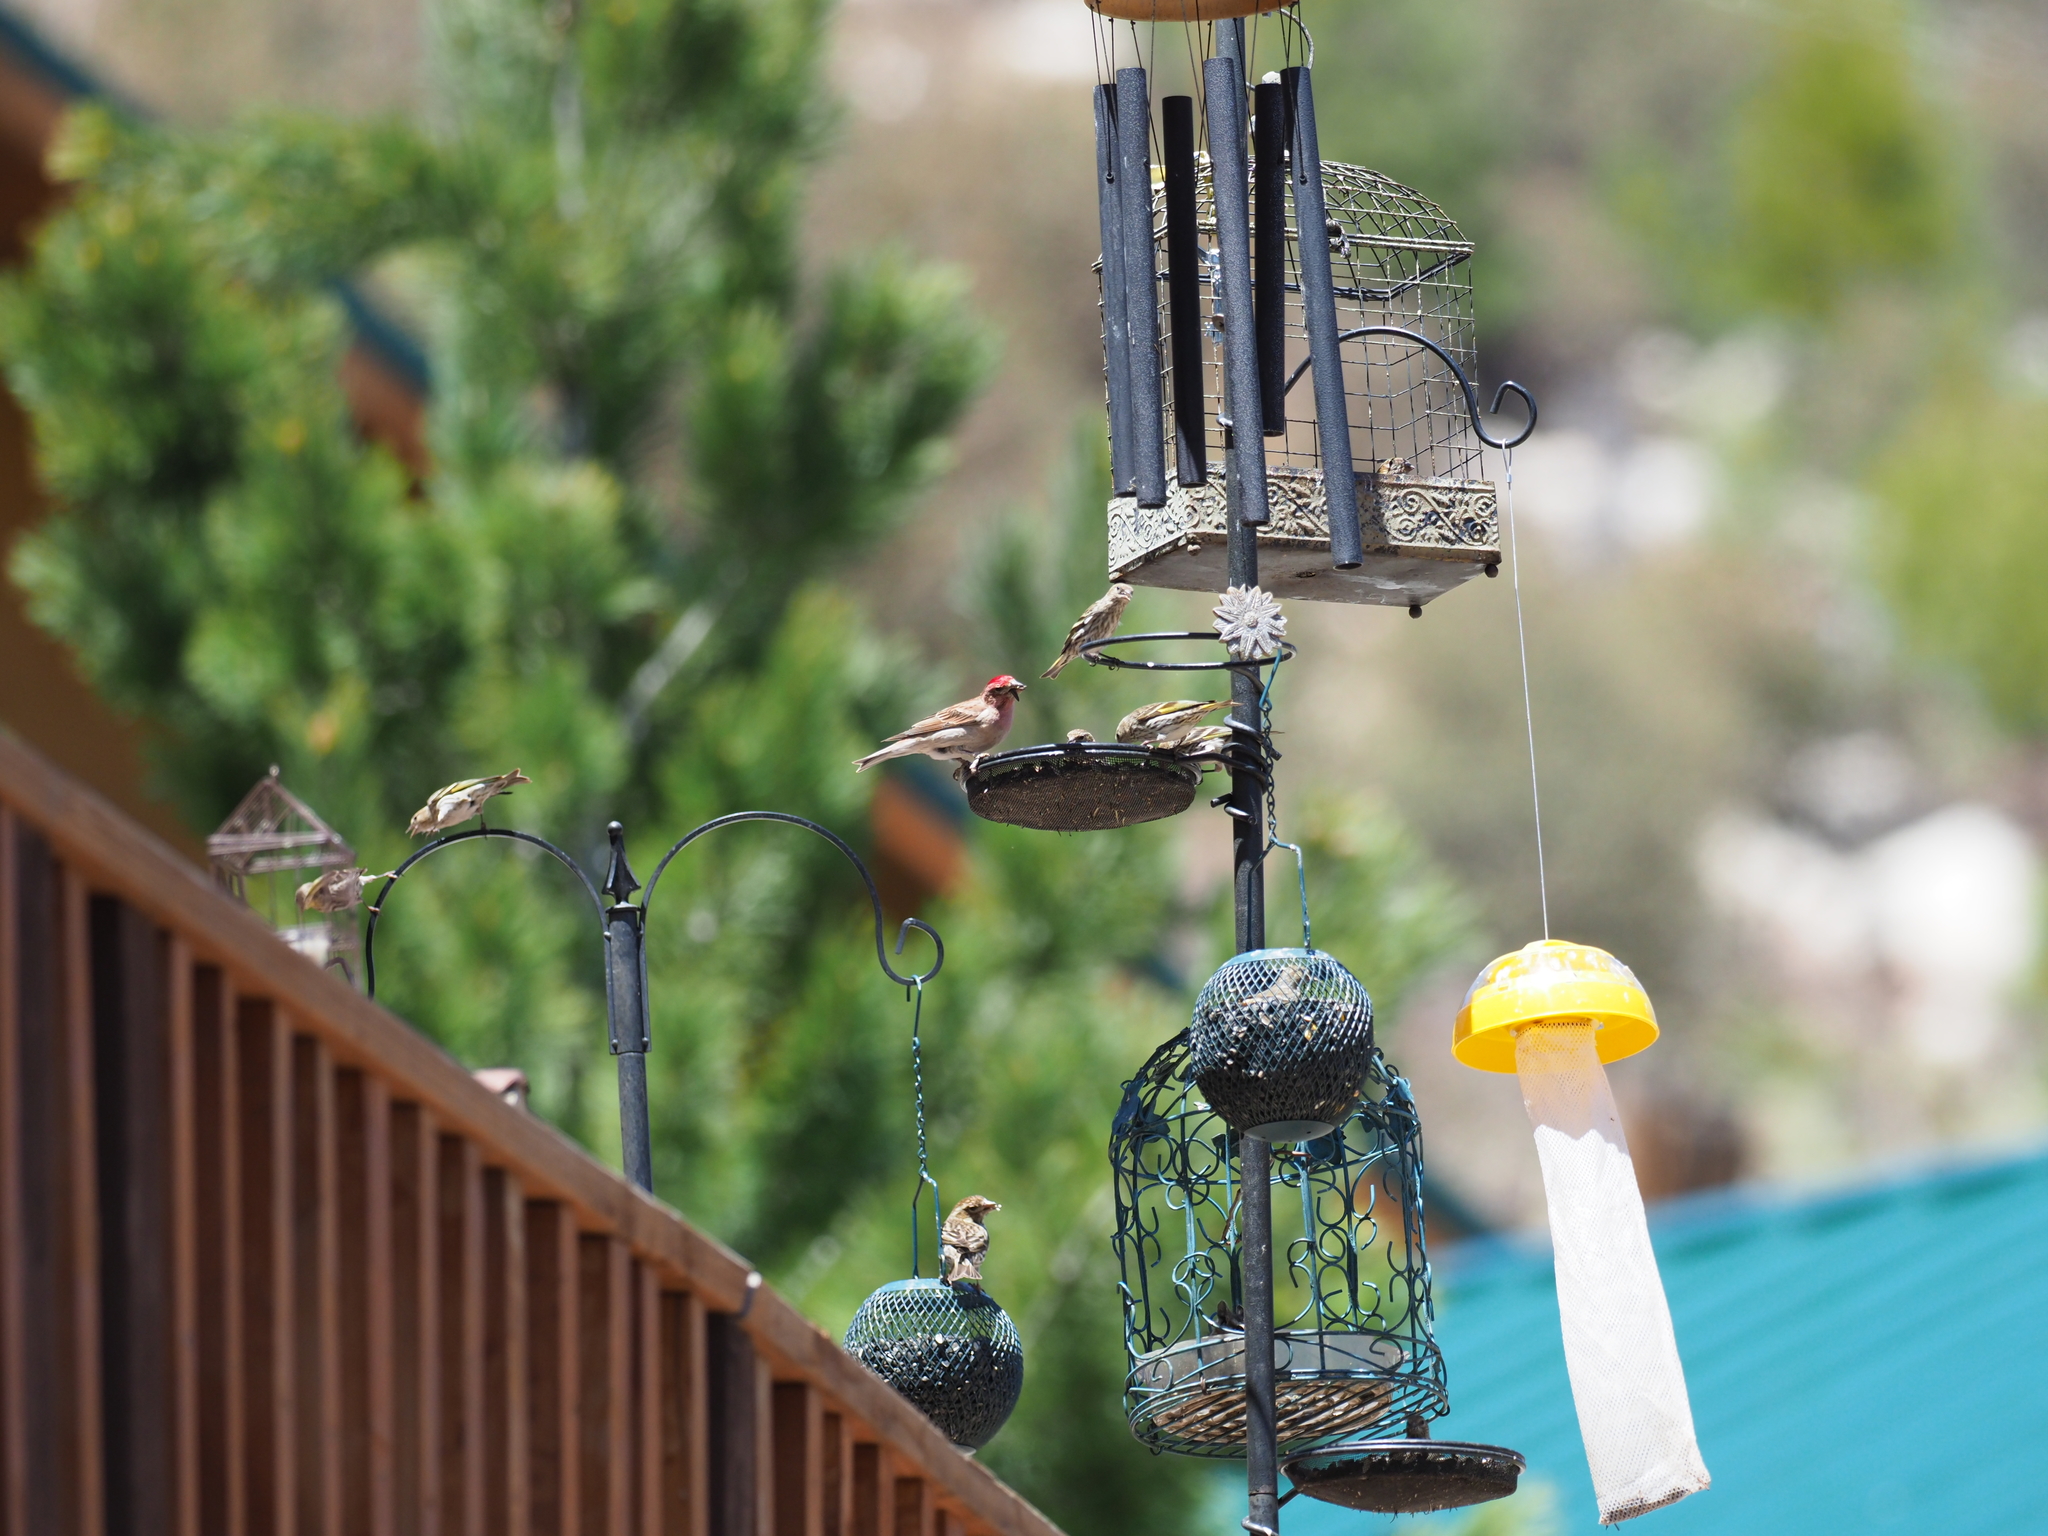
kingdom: Animalia
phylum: Chordata
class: Aves
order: Passeriformes
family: Fringillidae
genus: Haemorhous
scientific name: Haemorhous cassinii
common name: Cassin's finch
